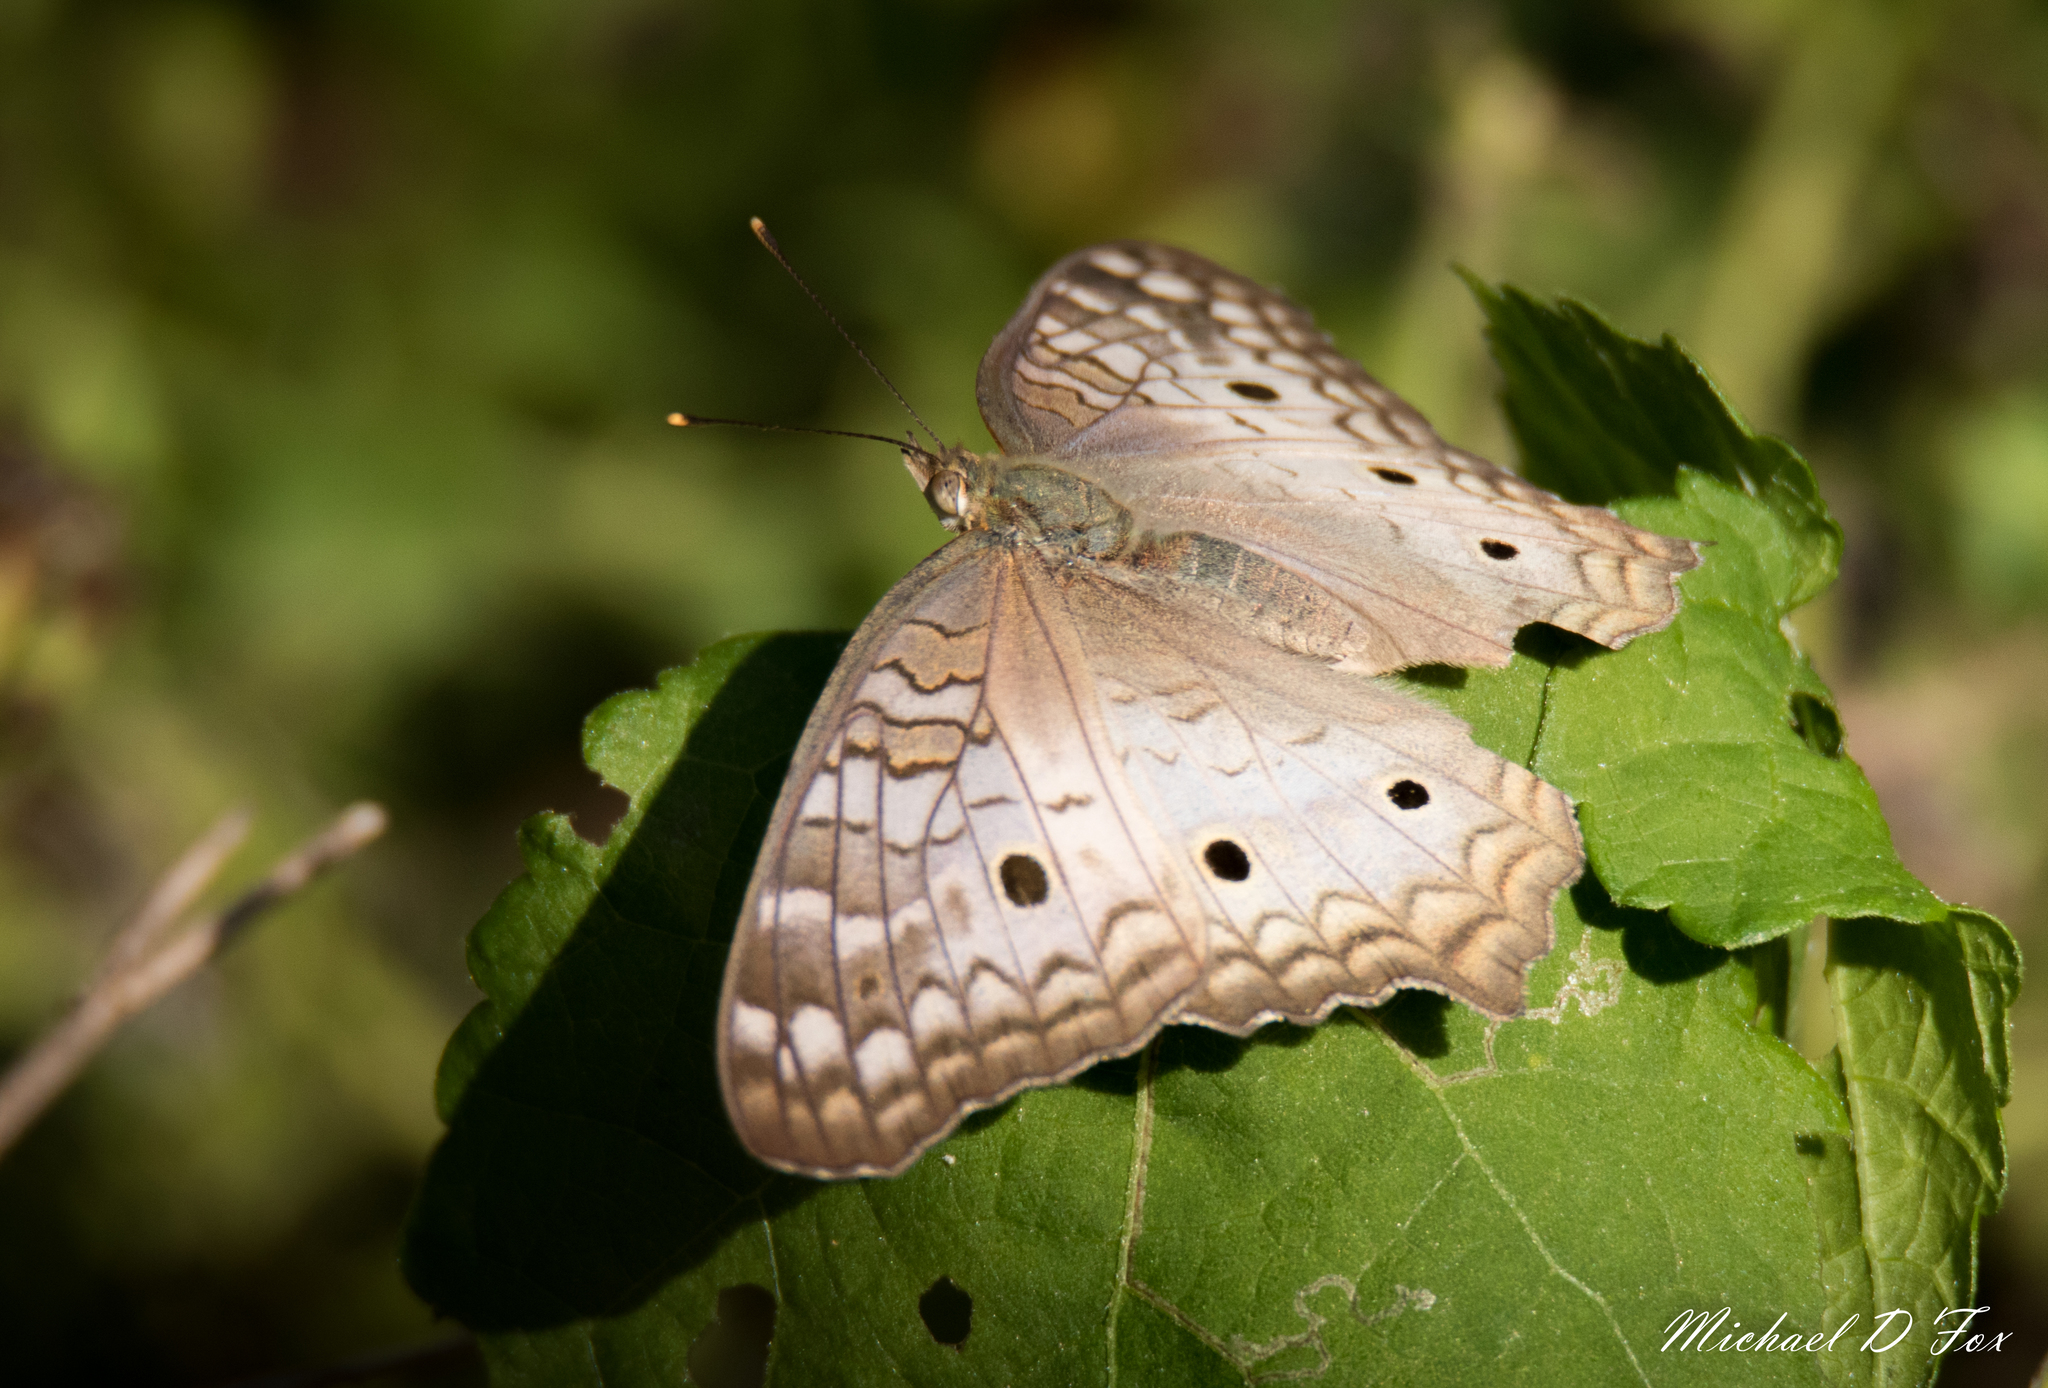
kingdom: Animalia
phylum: Arthropoda
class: Insecta
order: Lepidoptera
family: Nymphalidae
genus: Anartia
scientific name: Anartia jatrophae
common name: White peacock
